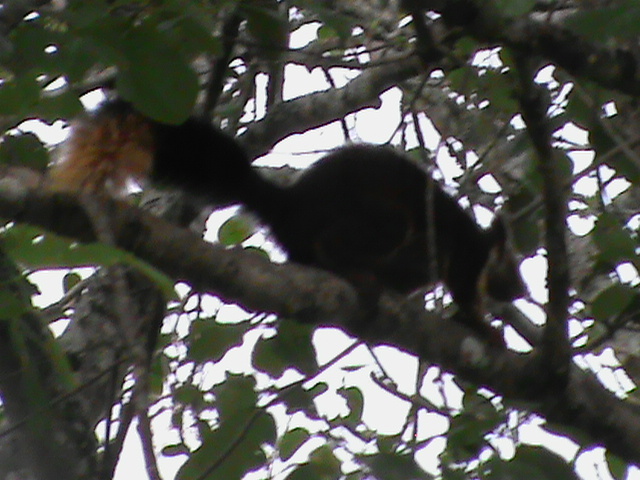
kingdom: Animalia
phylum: Chordata
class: Mammalia
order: Rodentia
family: Sciuridae
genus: Ratufa
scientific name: Ratufa indica
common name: Indian giant squirrel
